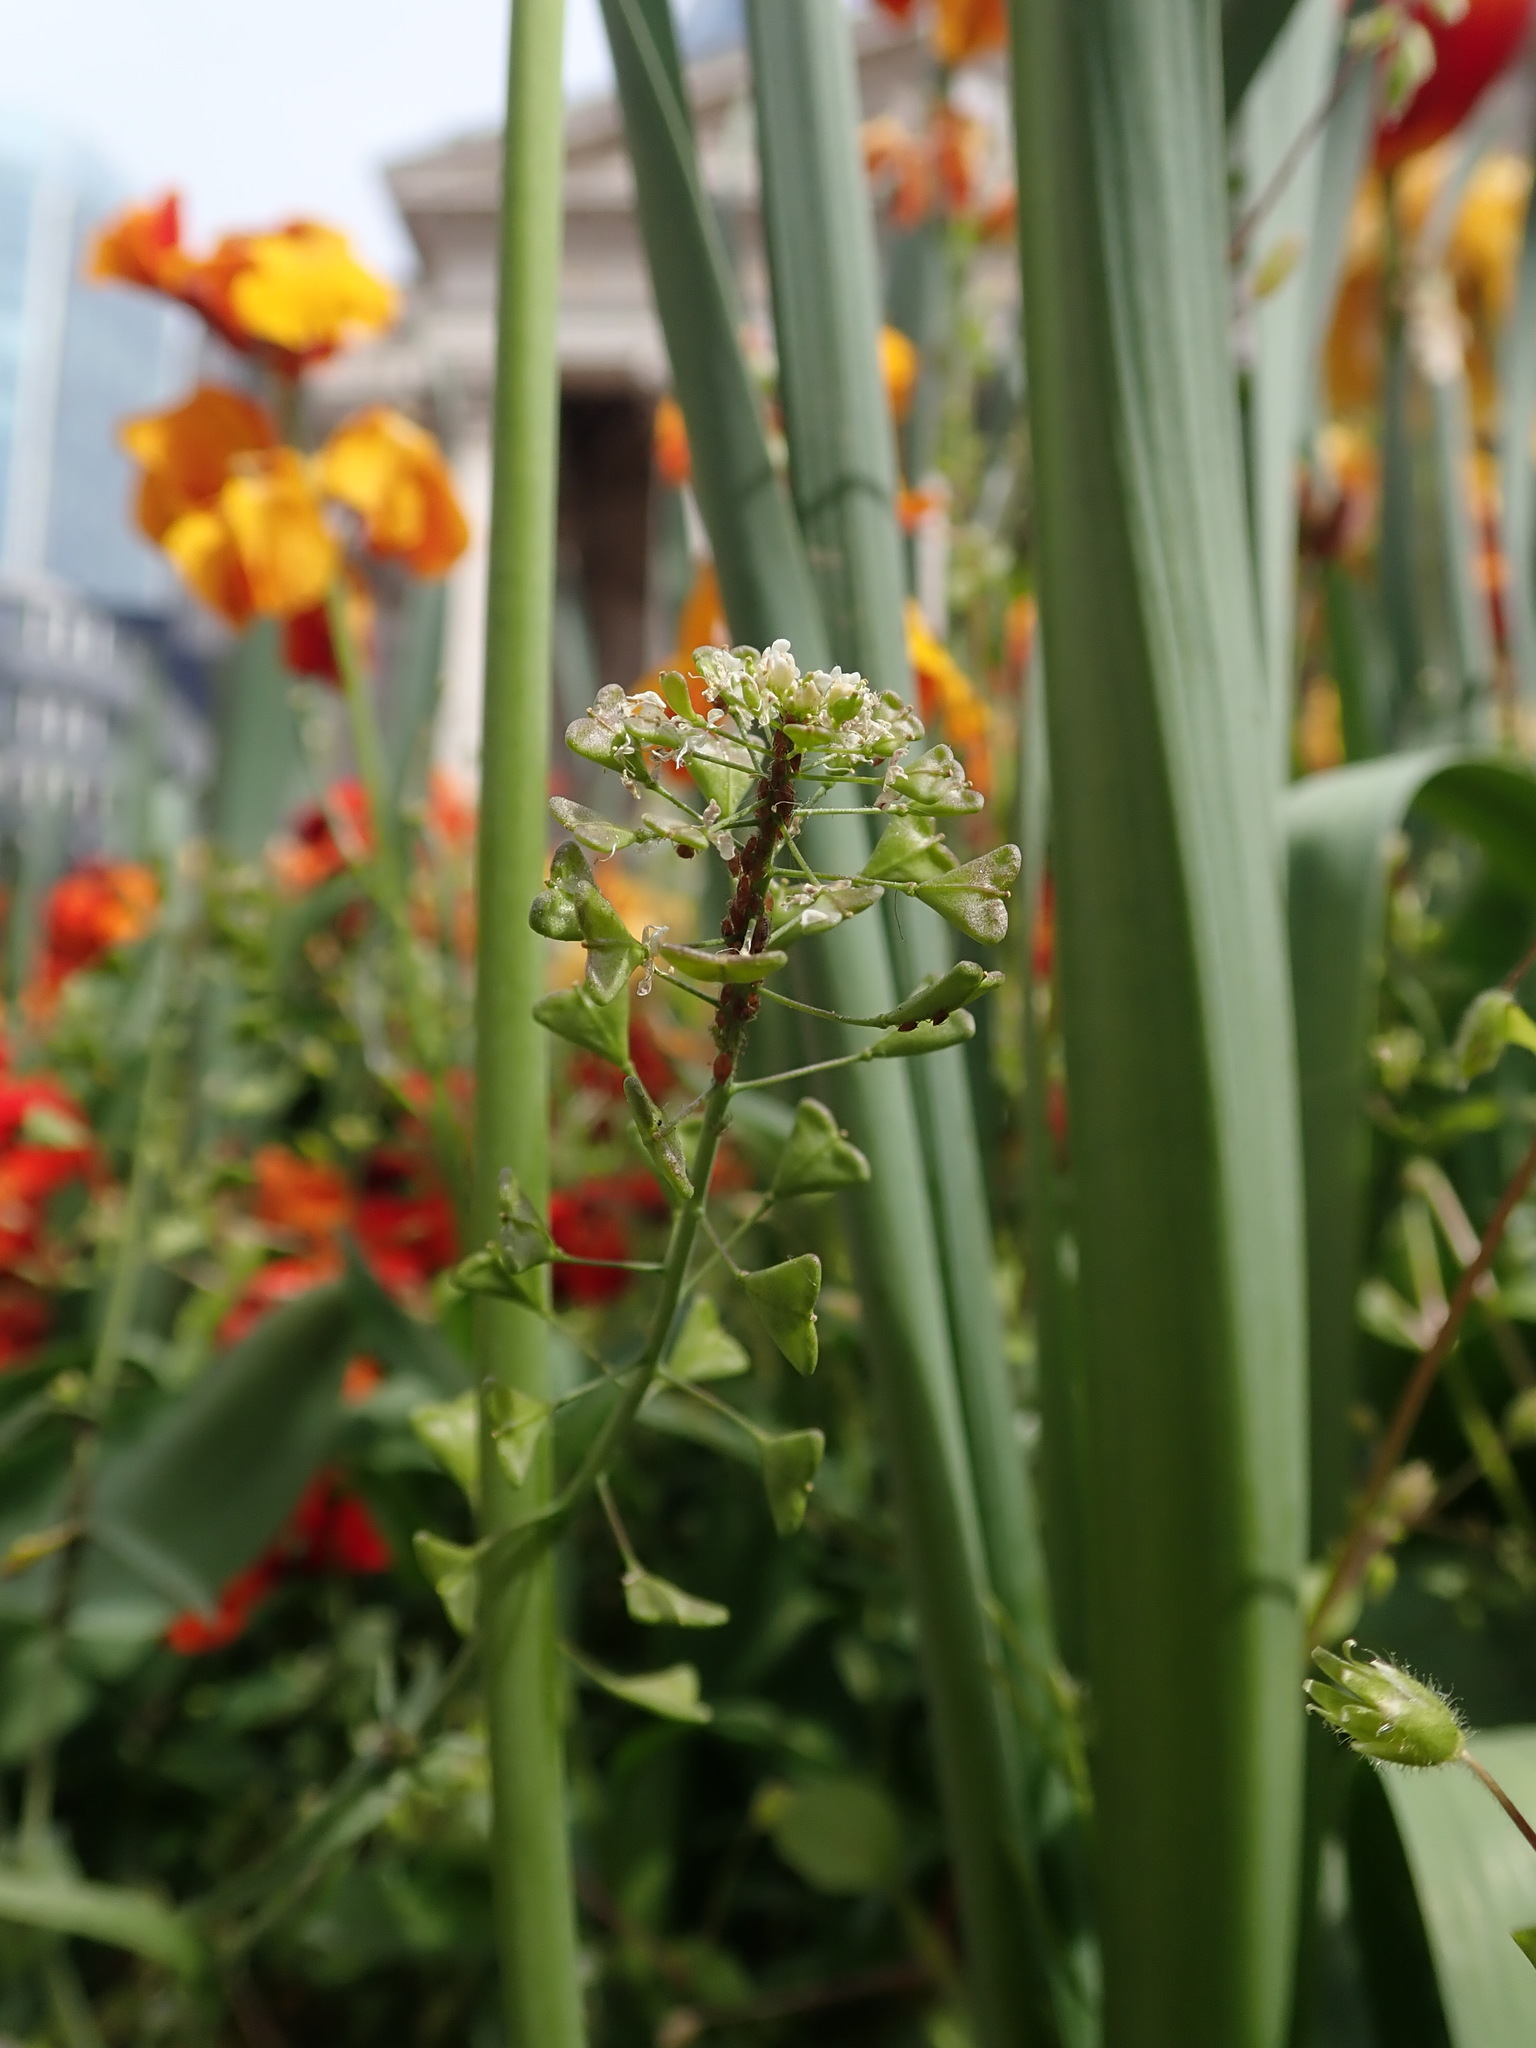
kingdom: Plantae
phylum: Tracheophyta
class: Magnoliopsida
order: Brassicales
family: Brassicaceae
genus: Capsella
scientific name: Capsella bursa-pastoris
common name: Shepherd's purse
